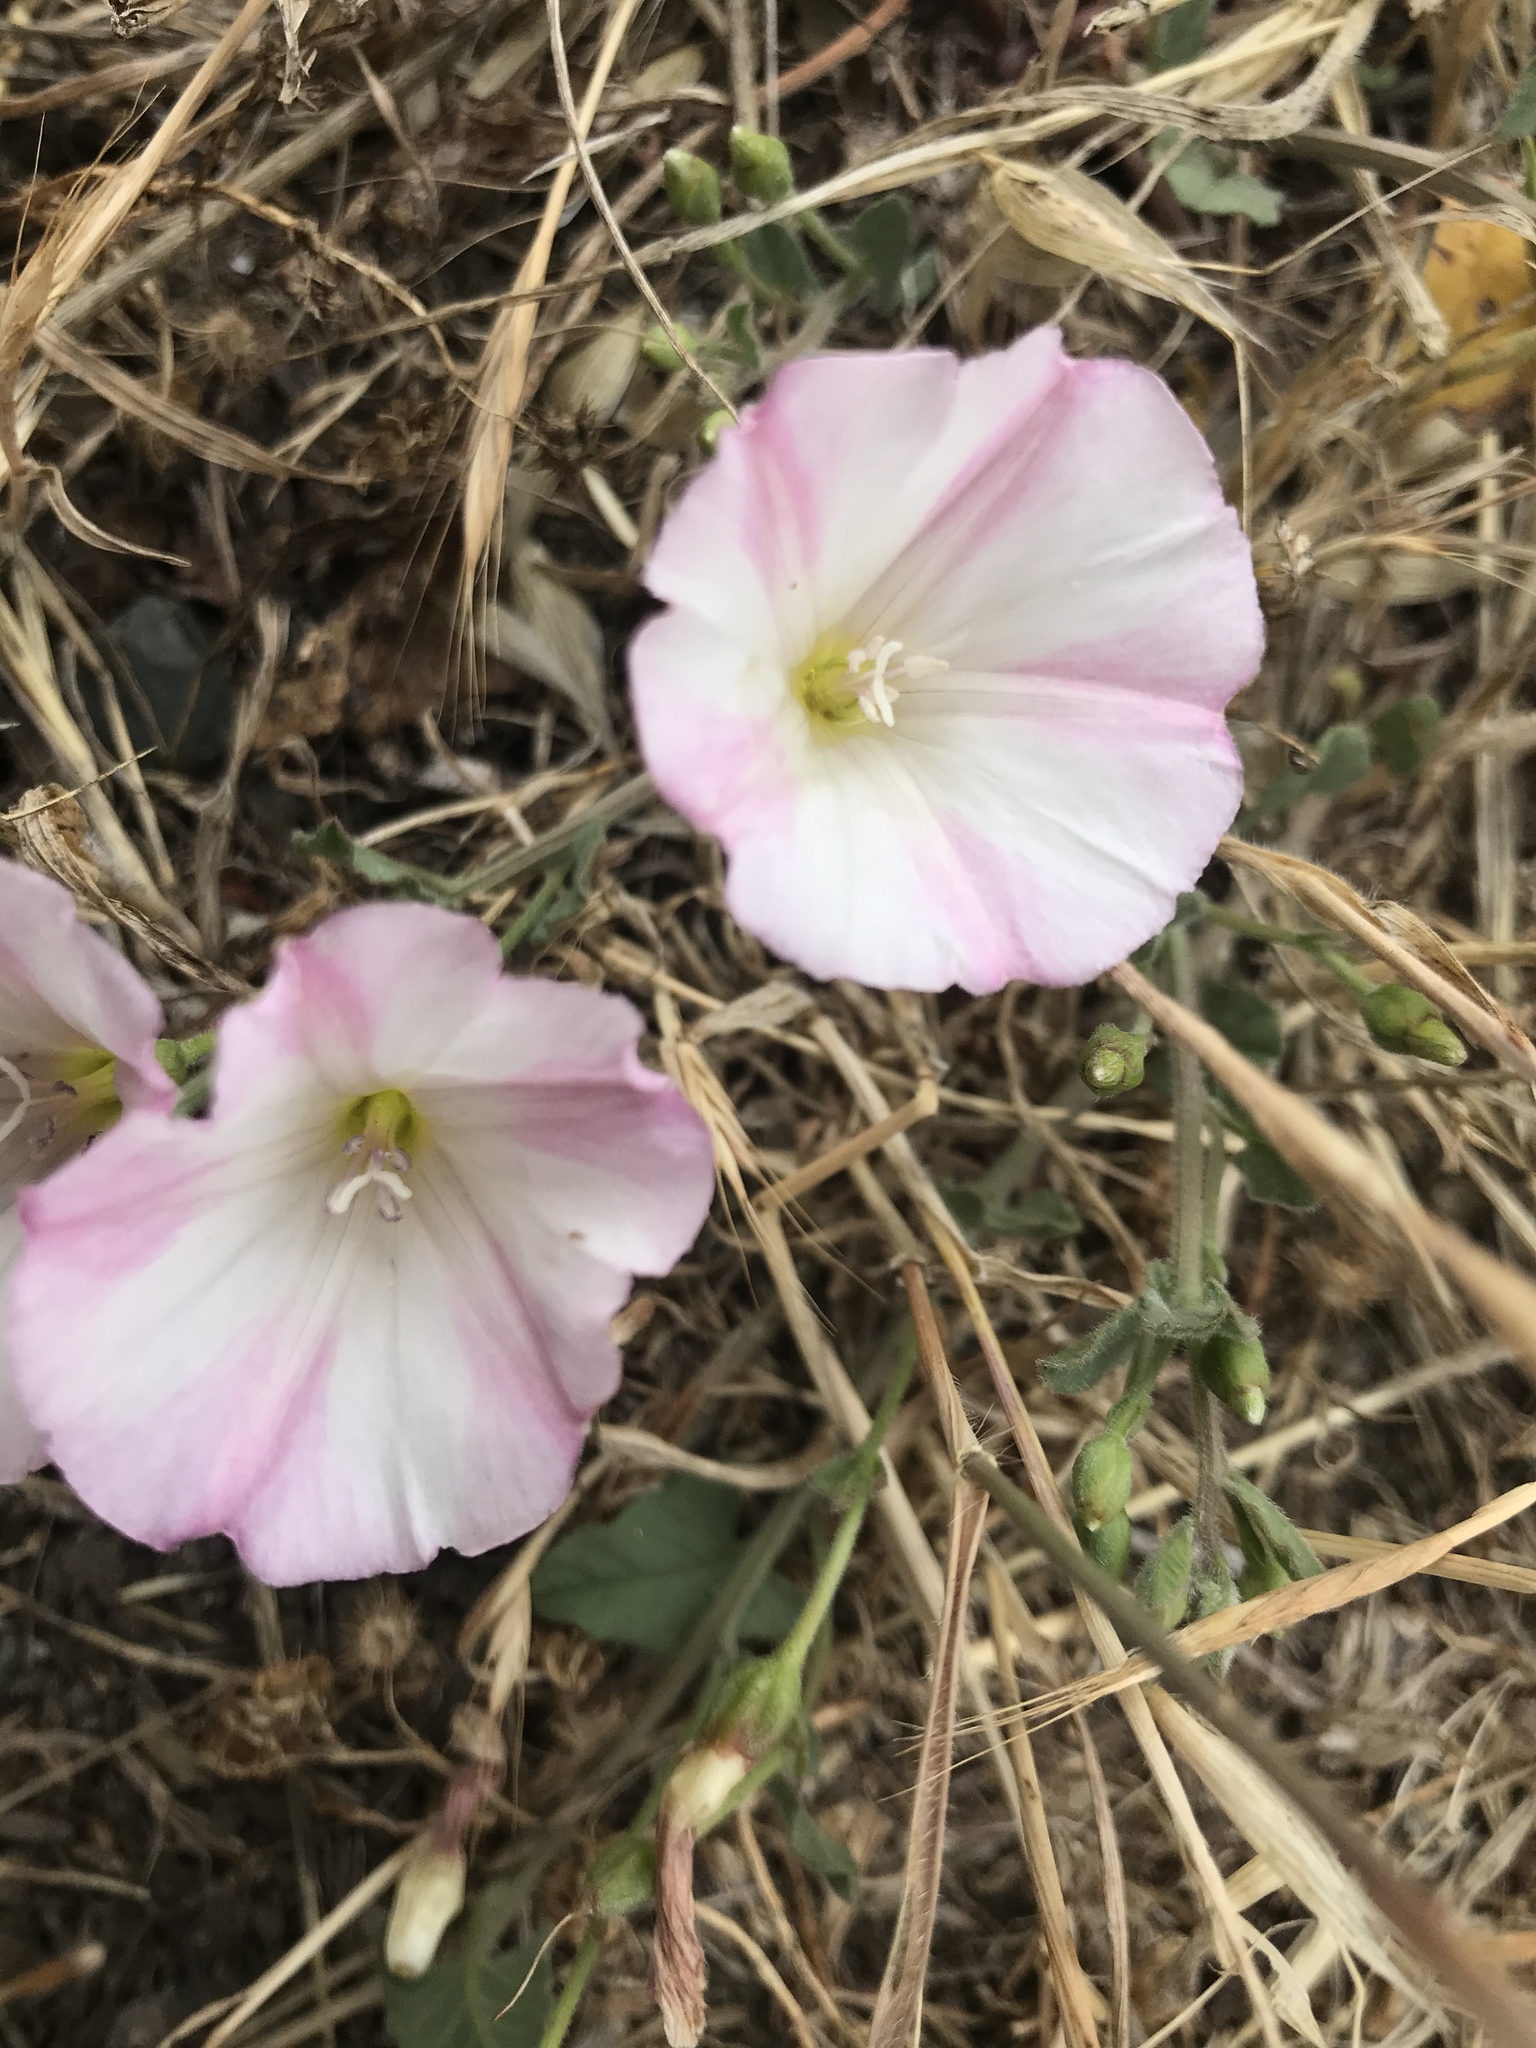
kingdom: Plantae
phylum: Tracheophyta
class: Magnoliopsida
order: Solanales
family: Convolvulaceae
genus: Convolvulus
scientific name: Convolvulus arvensis
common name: Field bindweed
